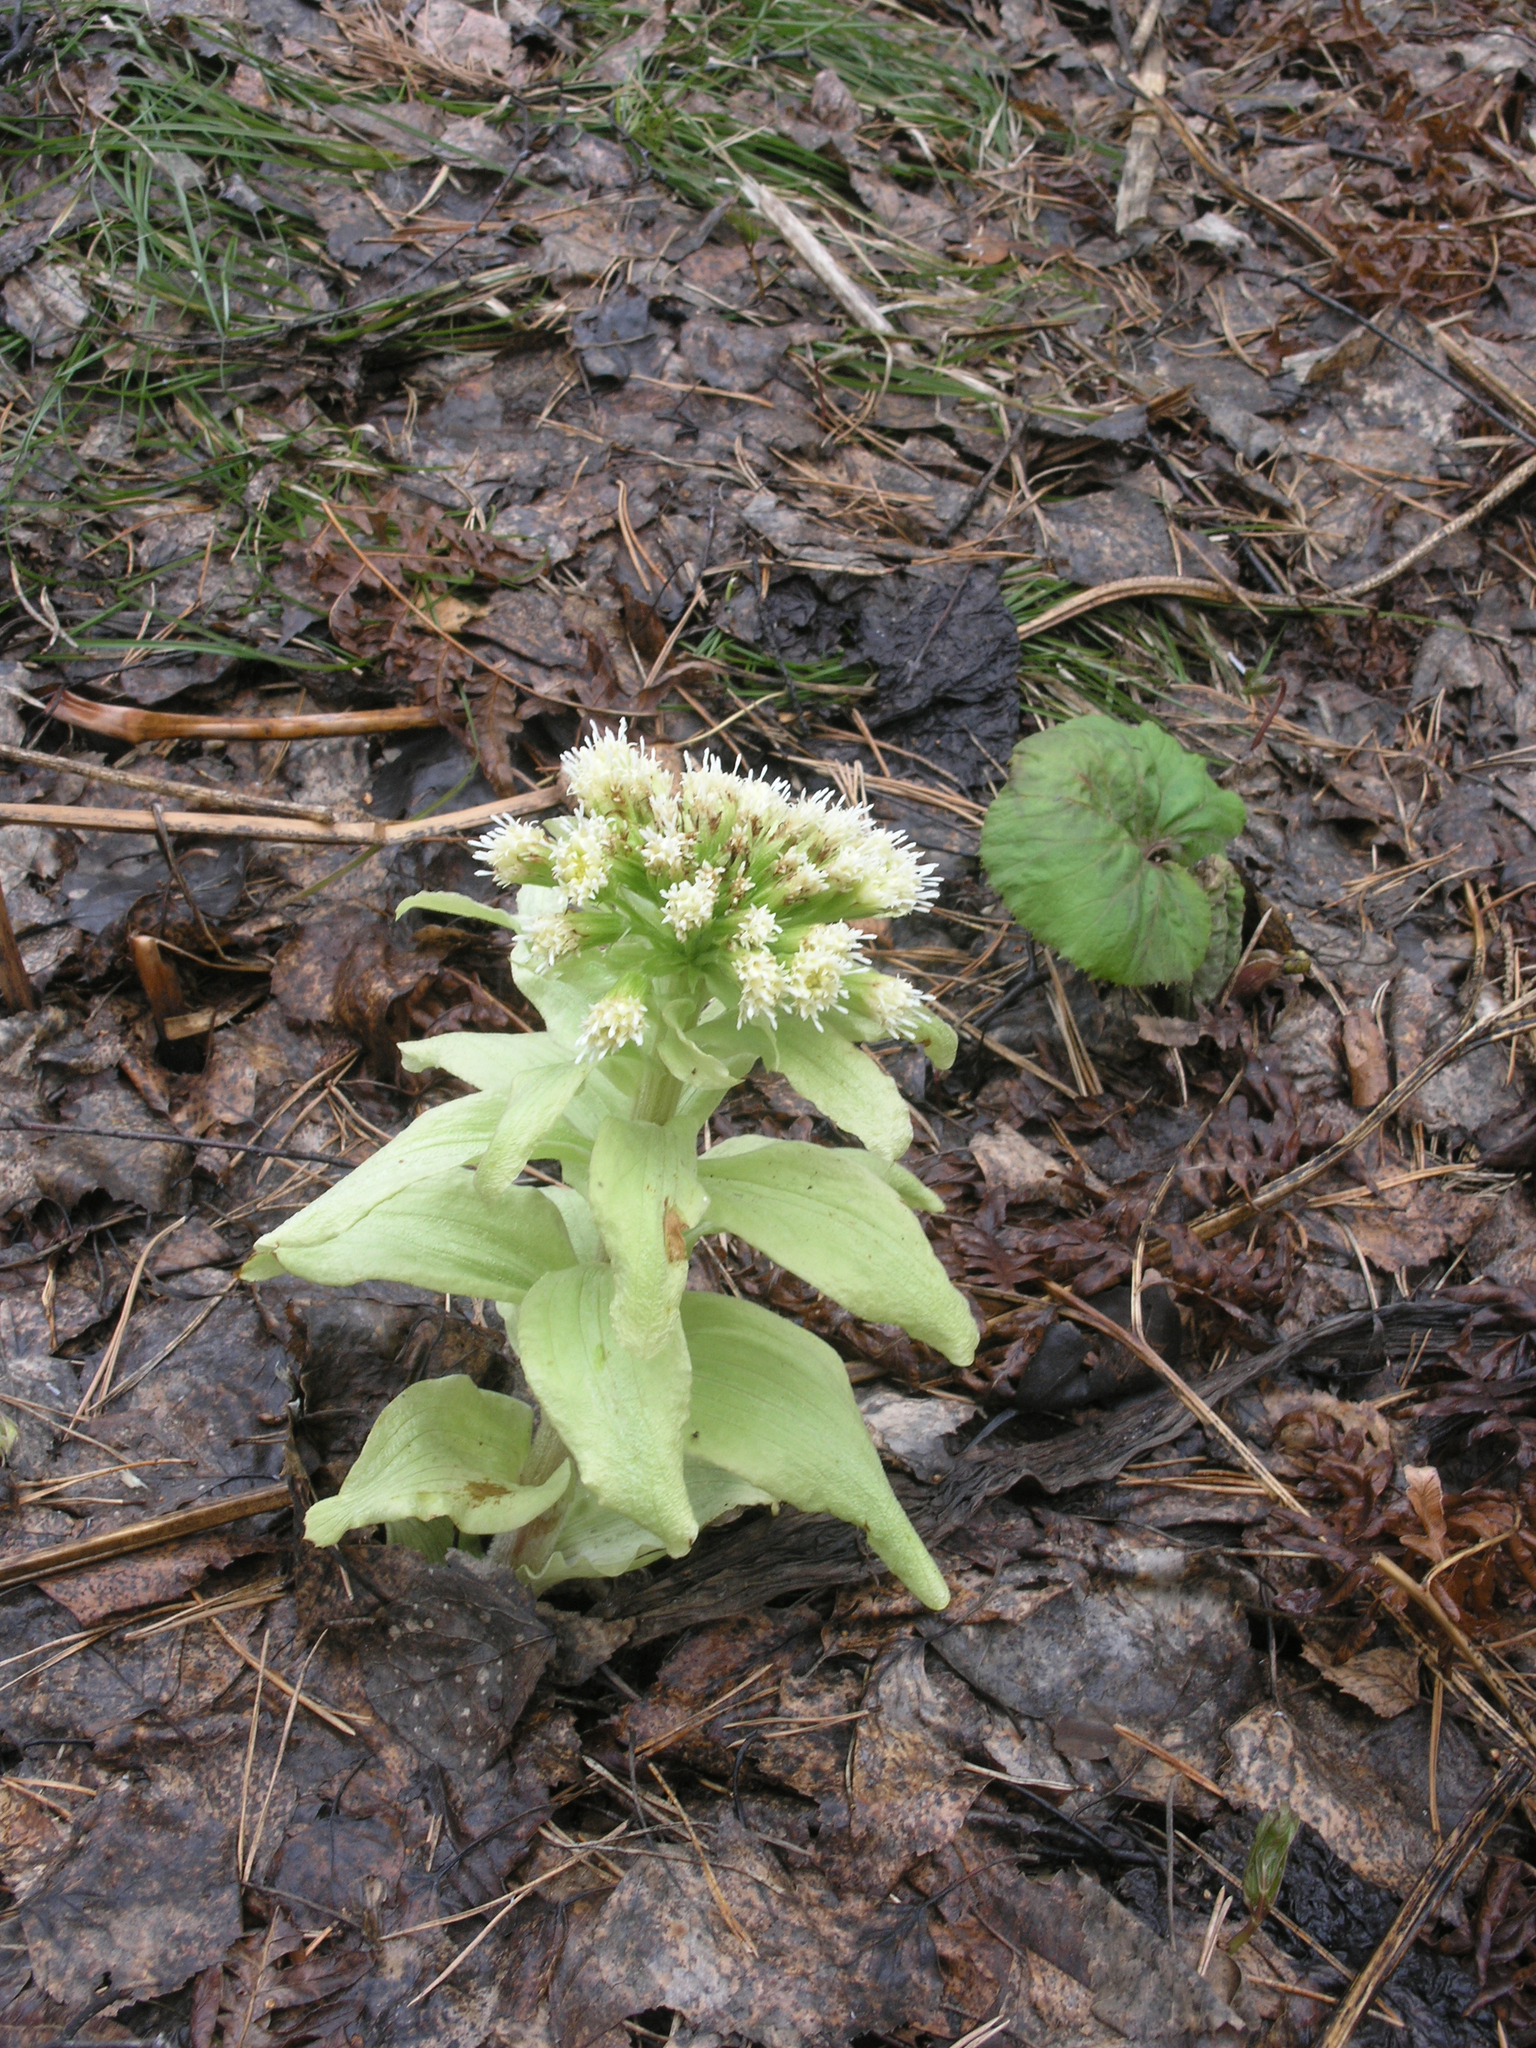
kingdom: Plantae
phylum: Tracheophyta
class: Magnoliopsida
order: Asterales
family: Asteraceae
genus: Petasites
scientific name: Petasites japonicus
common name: Giant butterbur
